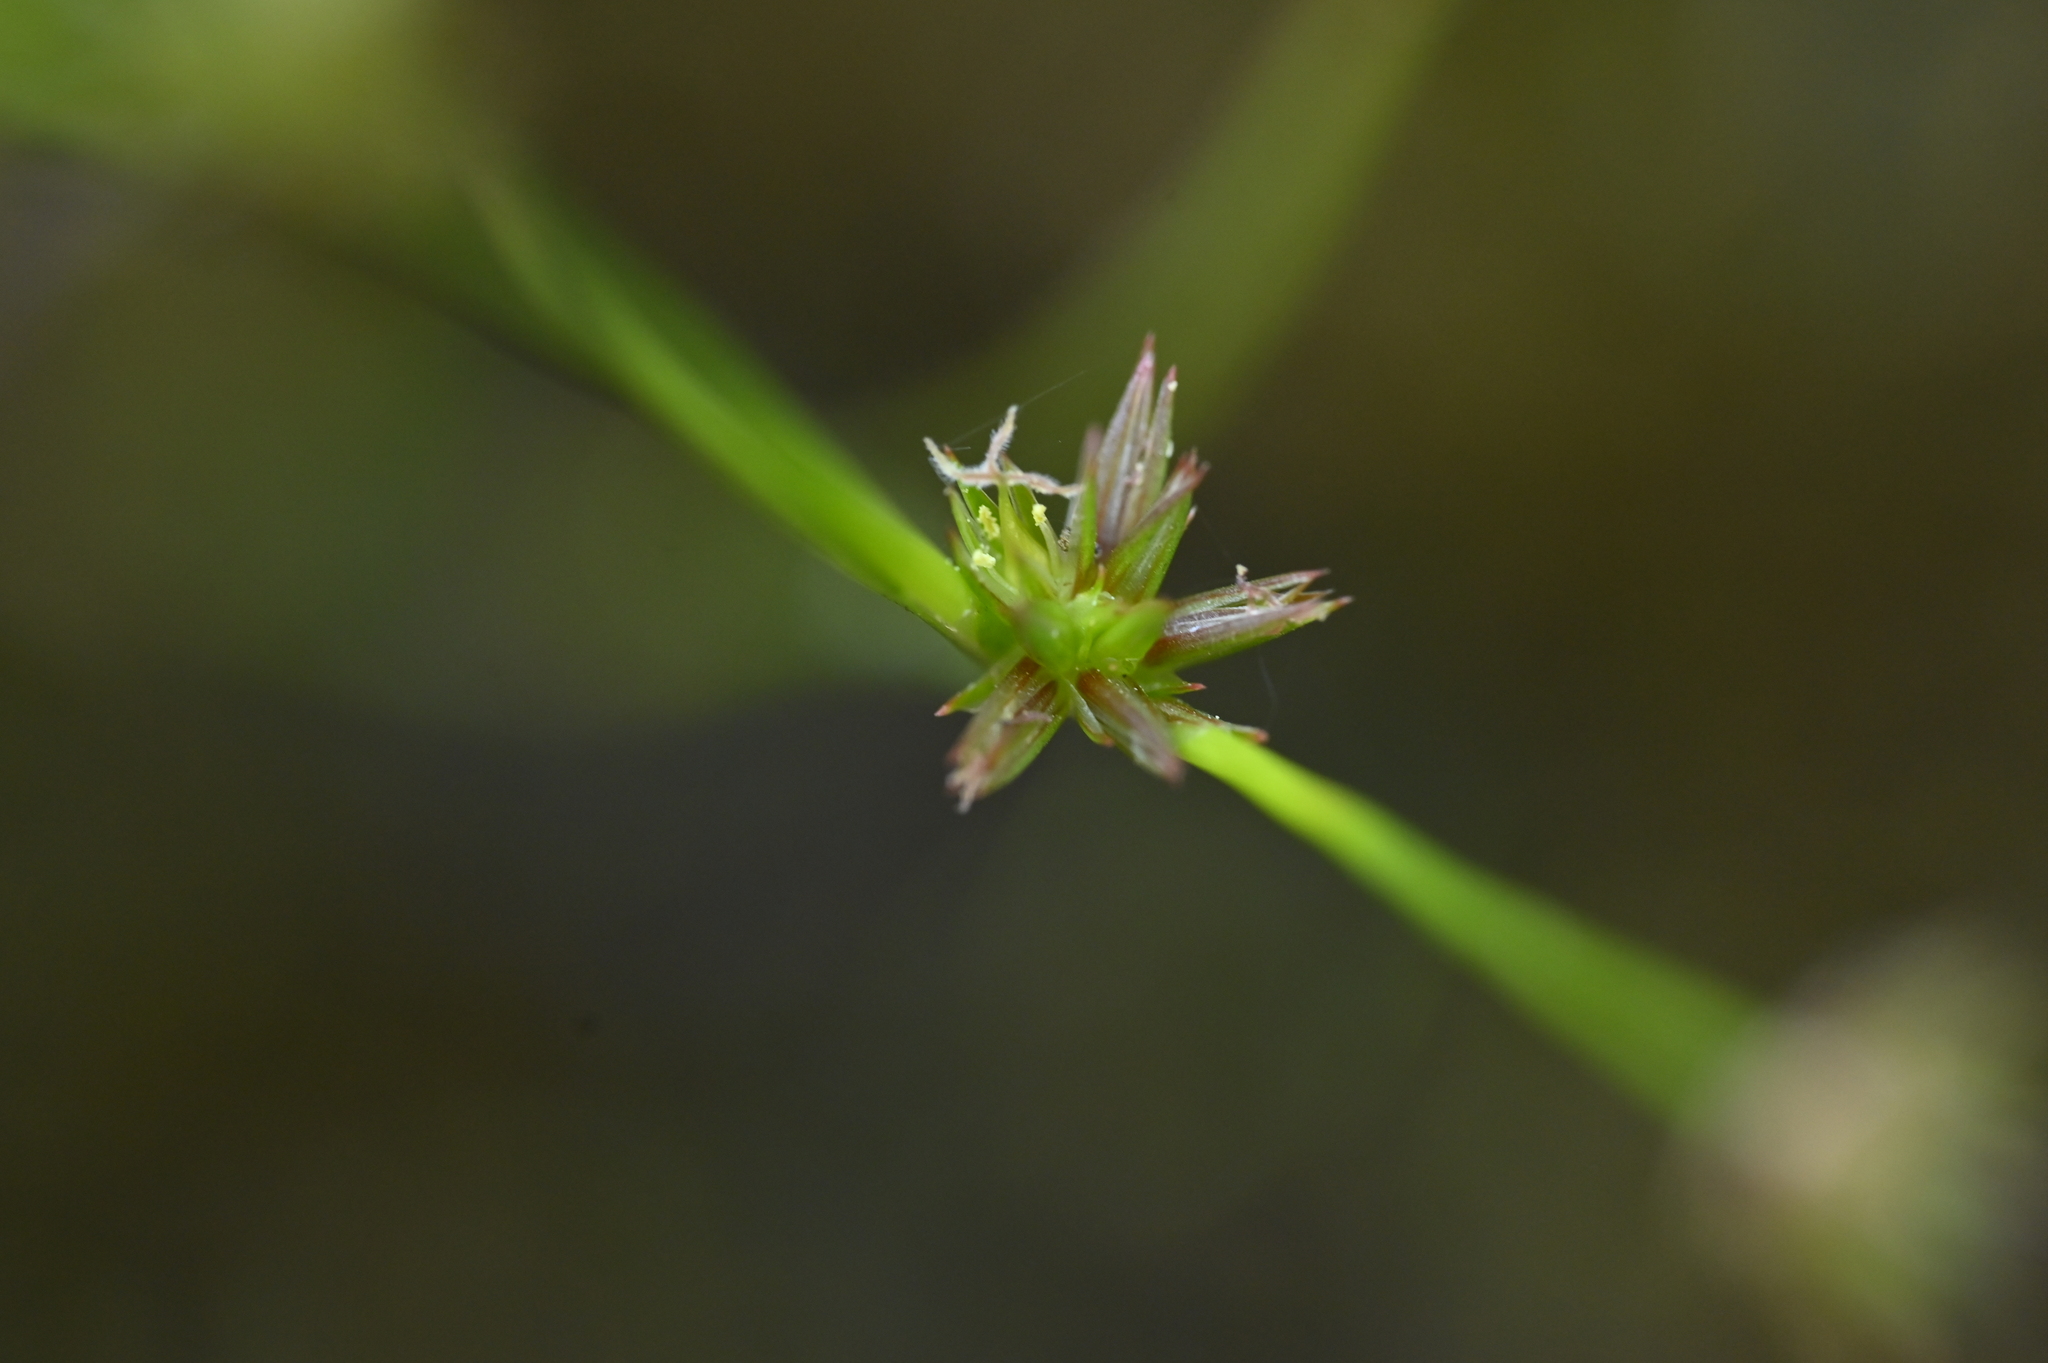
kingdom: Plantae
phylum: Tracheophyta
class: Liliopsida
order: Poales
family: Juncaceae
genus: Juncus
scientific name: Juncus prismatocarpus
